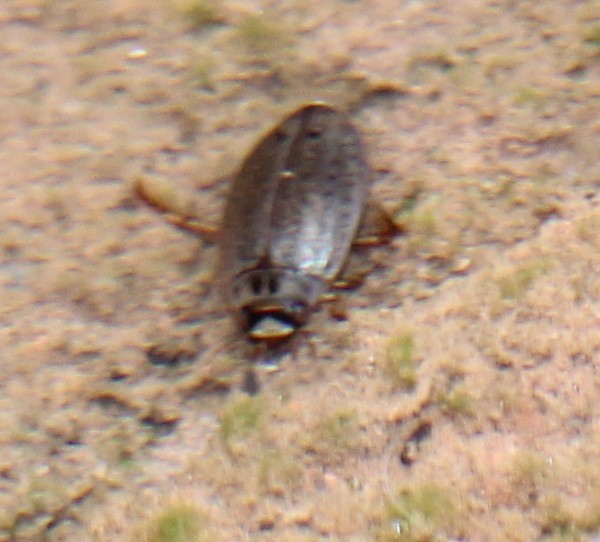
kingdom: Animalia
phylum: Arthropoda
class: Insecta
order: Coleoptera
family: Dytiscidae
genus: Rhantus
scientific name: Rhantus gutticollis
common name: Predaceous diving beetle
